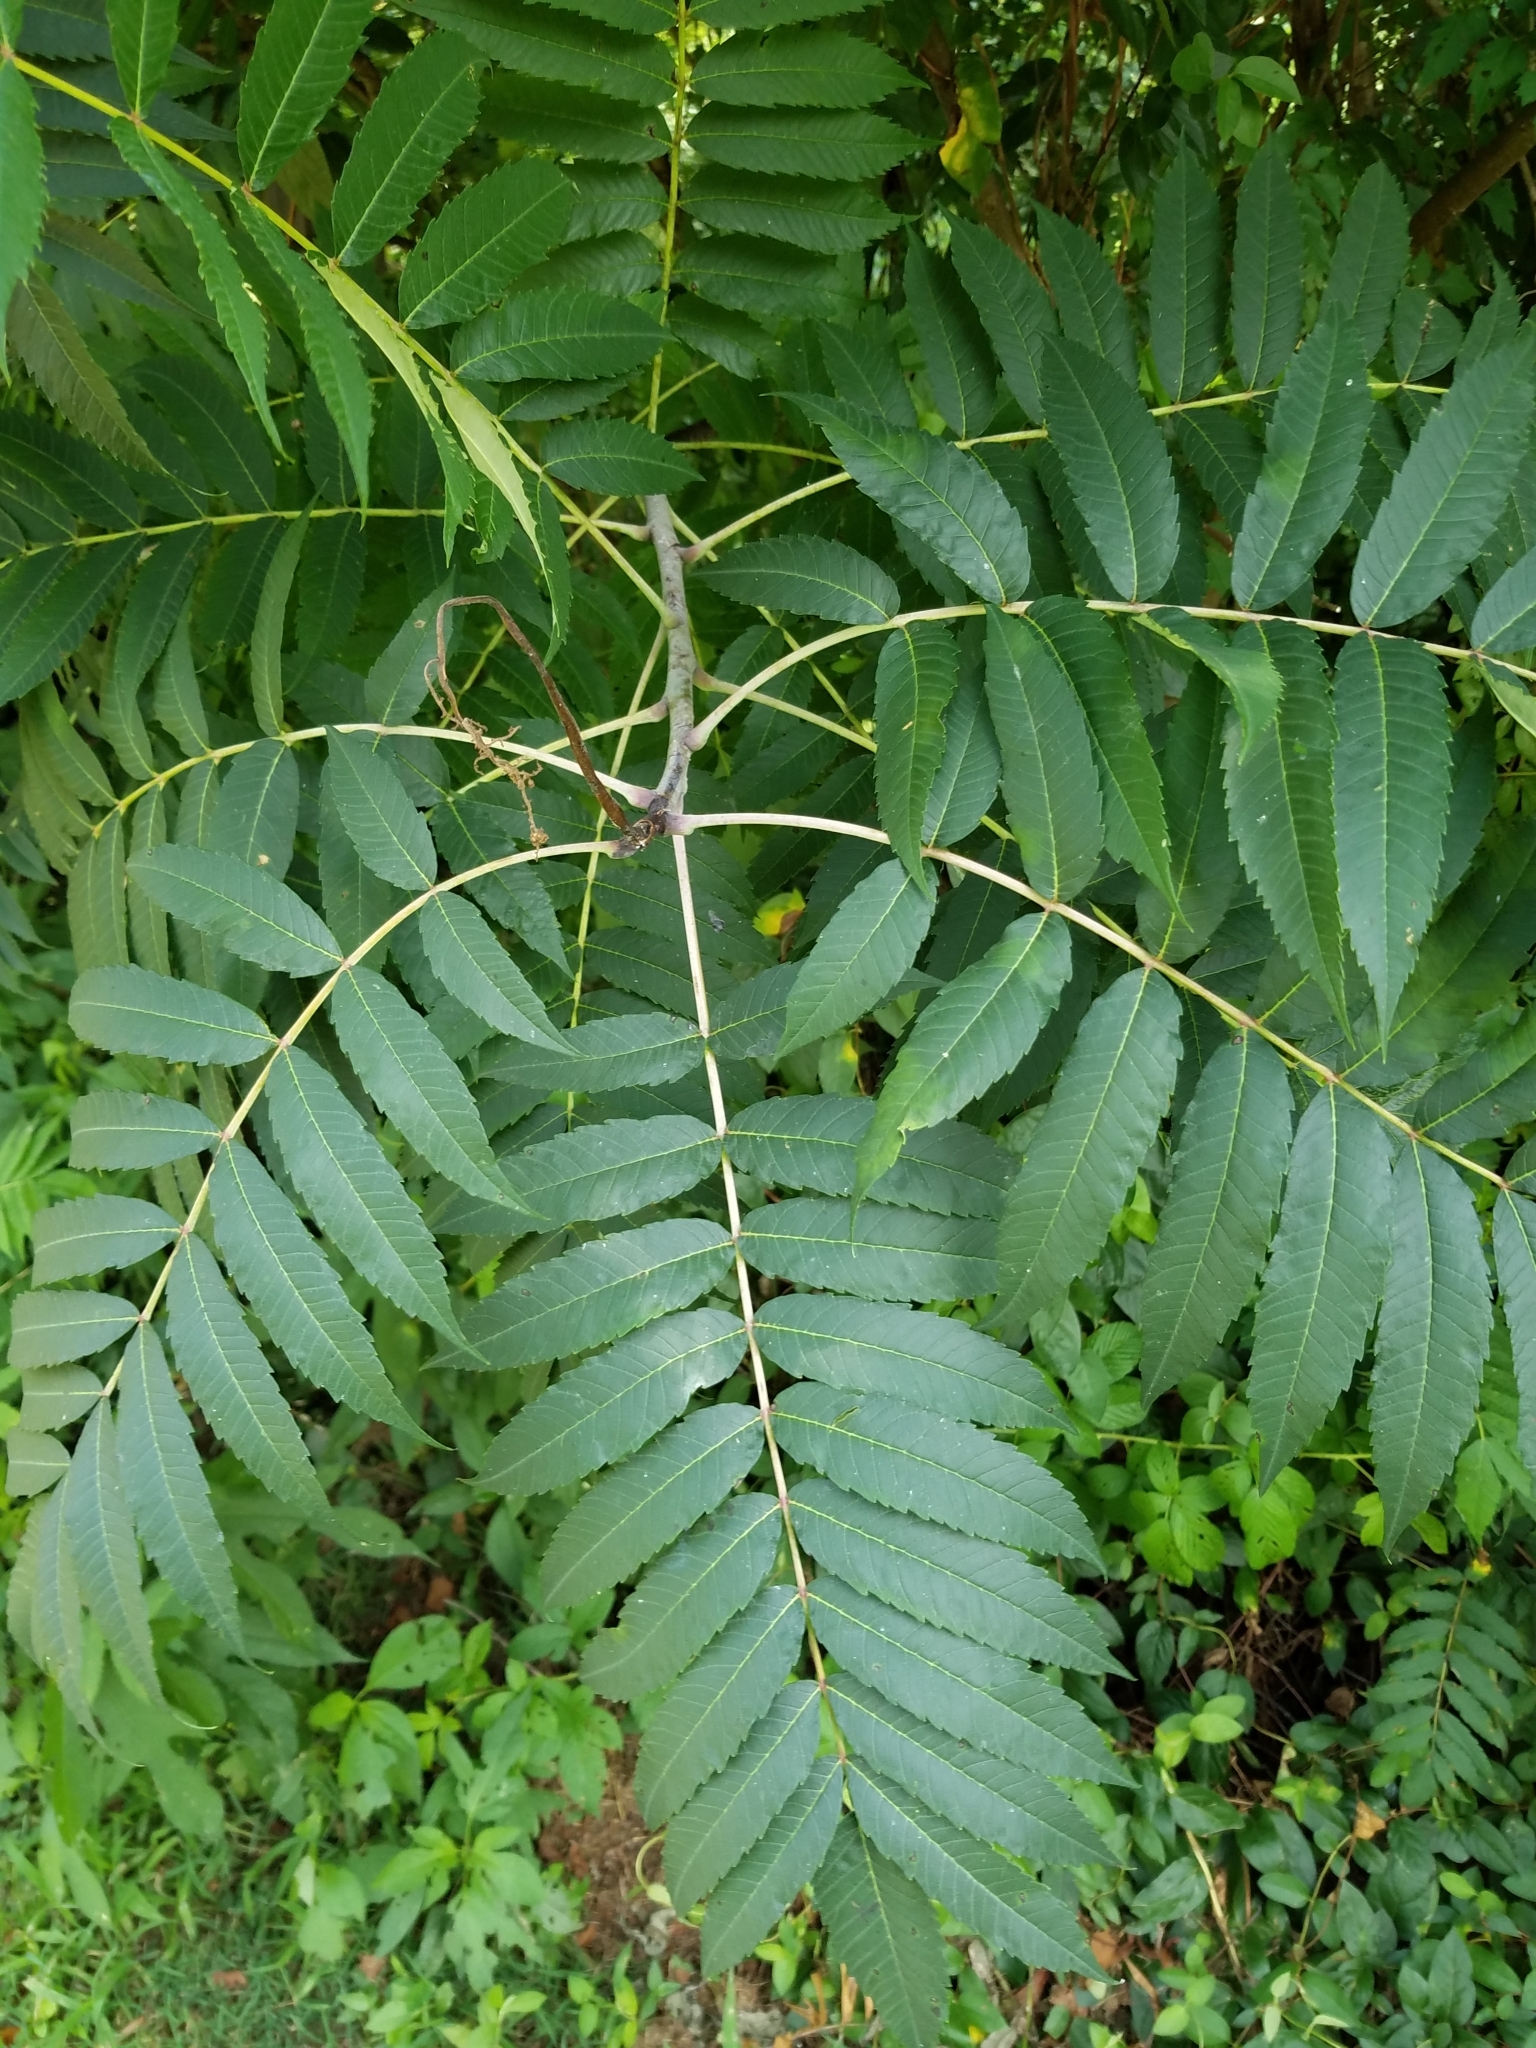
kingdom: Plantae
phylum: Tracheophyta
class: Magnoliopsida
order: Sapindales
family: Anacardiaceae
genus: Rhus
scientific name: Rhus glabra
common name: Scarlet sumac
